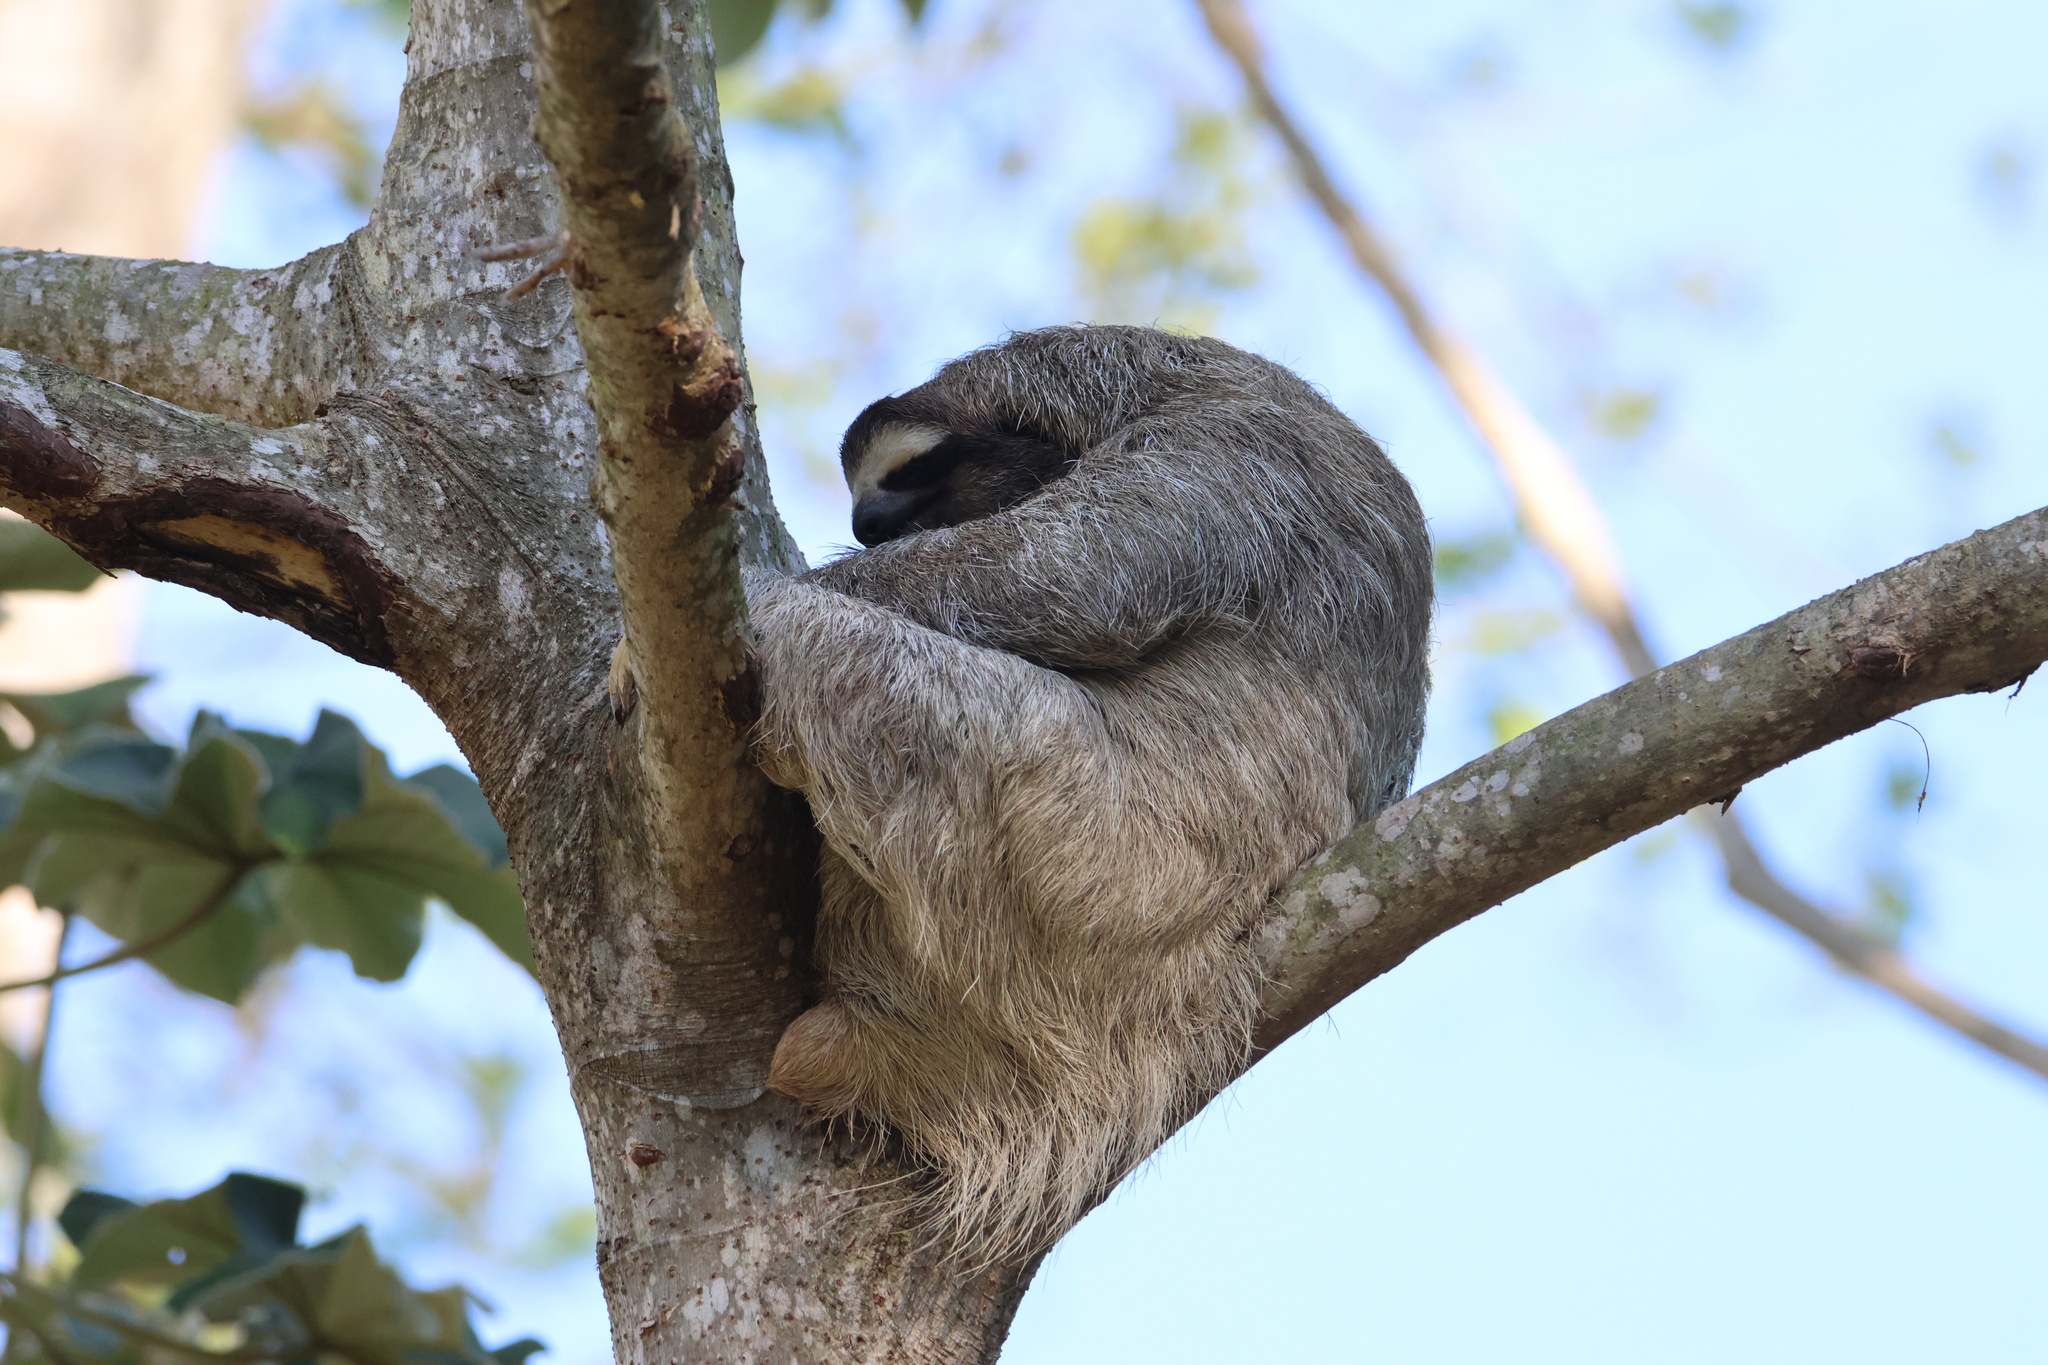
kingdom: Animalia
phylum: Chordata
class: Mammalia
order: Pilosa
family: Bradypodidae
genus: Bradypus
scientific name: Bradypus variegatus
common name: Brown-throated three-toed sloth
